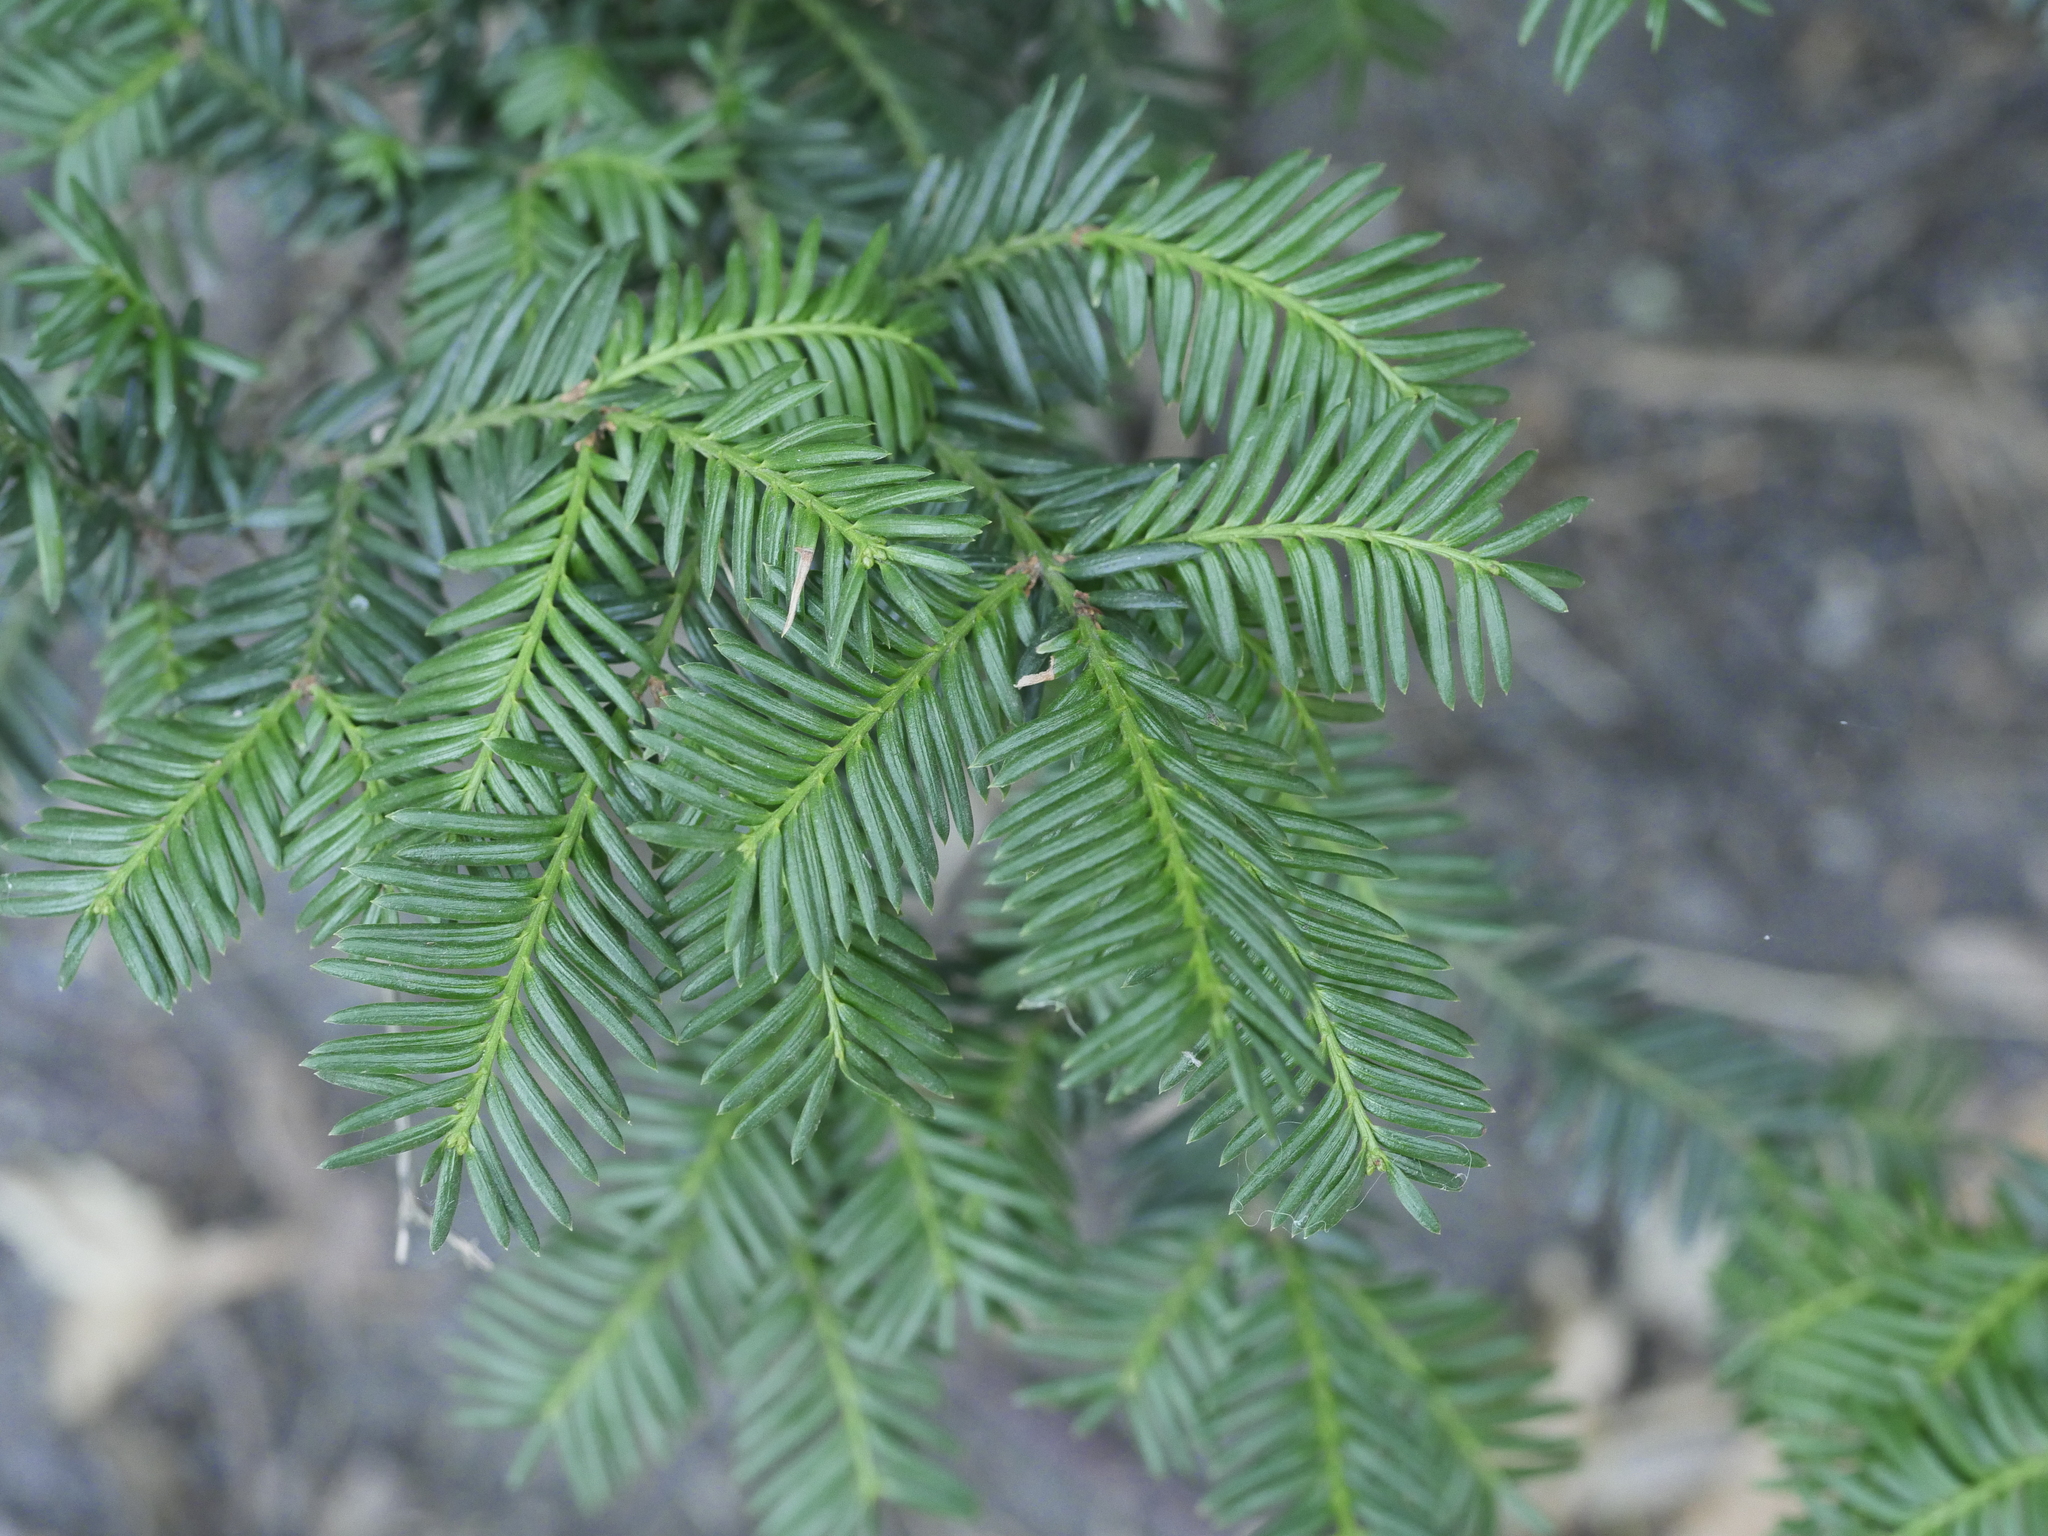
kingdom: Plantae
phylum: Tracheophyta
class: Pinopsida
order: Pinales
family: Taxaceae
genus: Taxus
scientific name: Taxus baccata
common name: Yew
